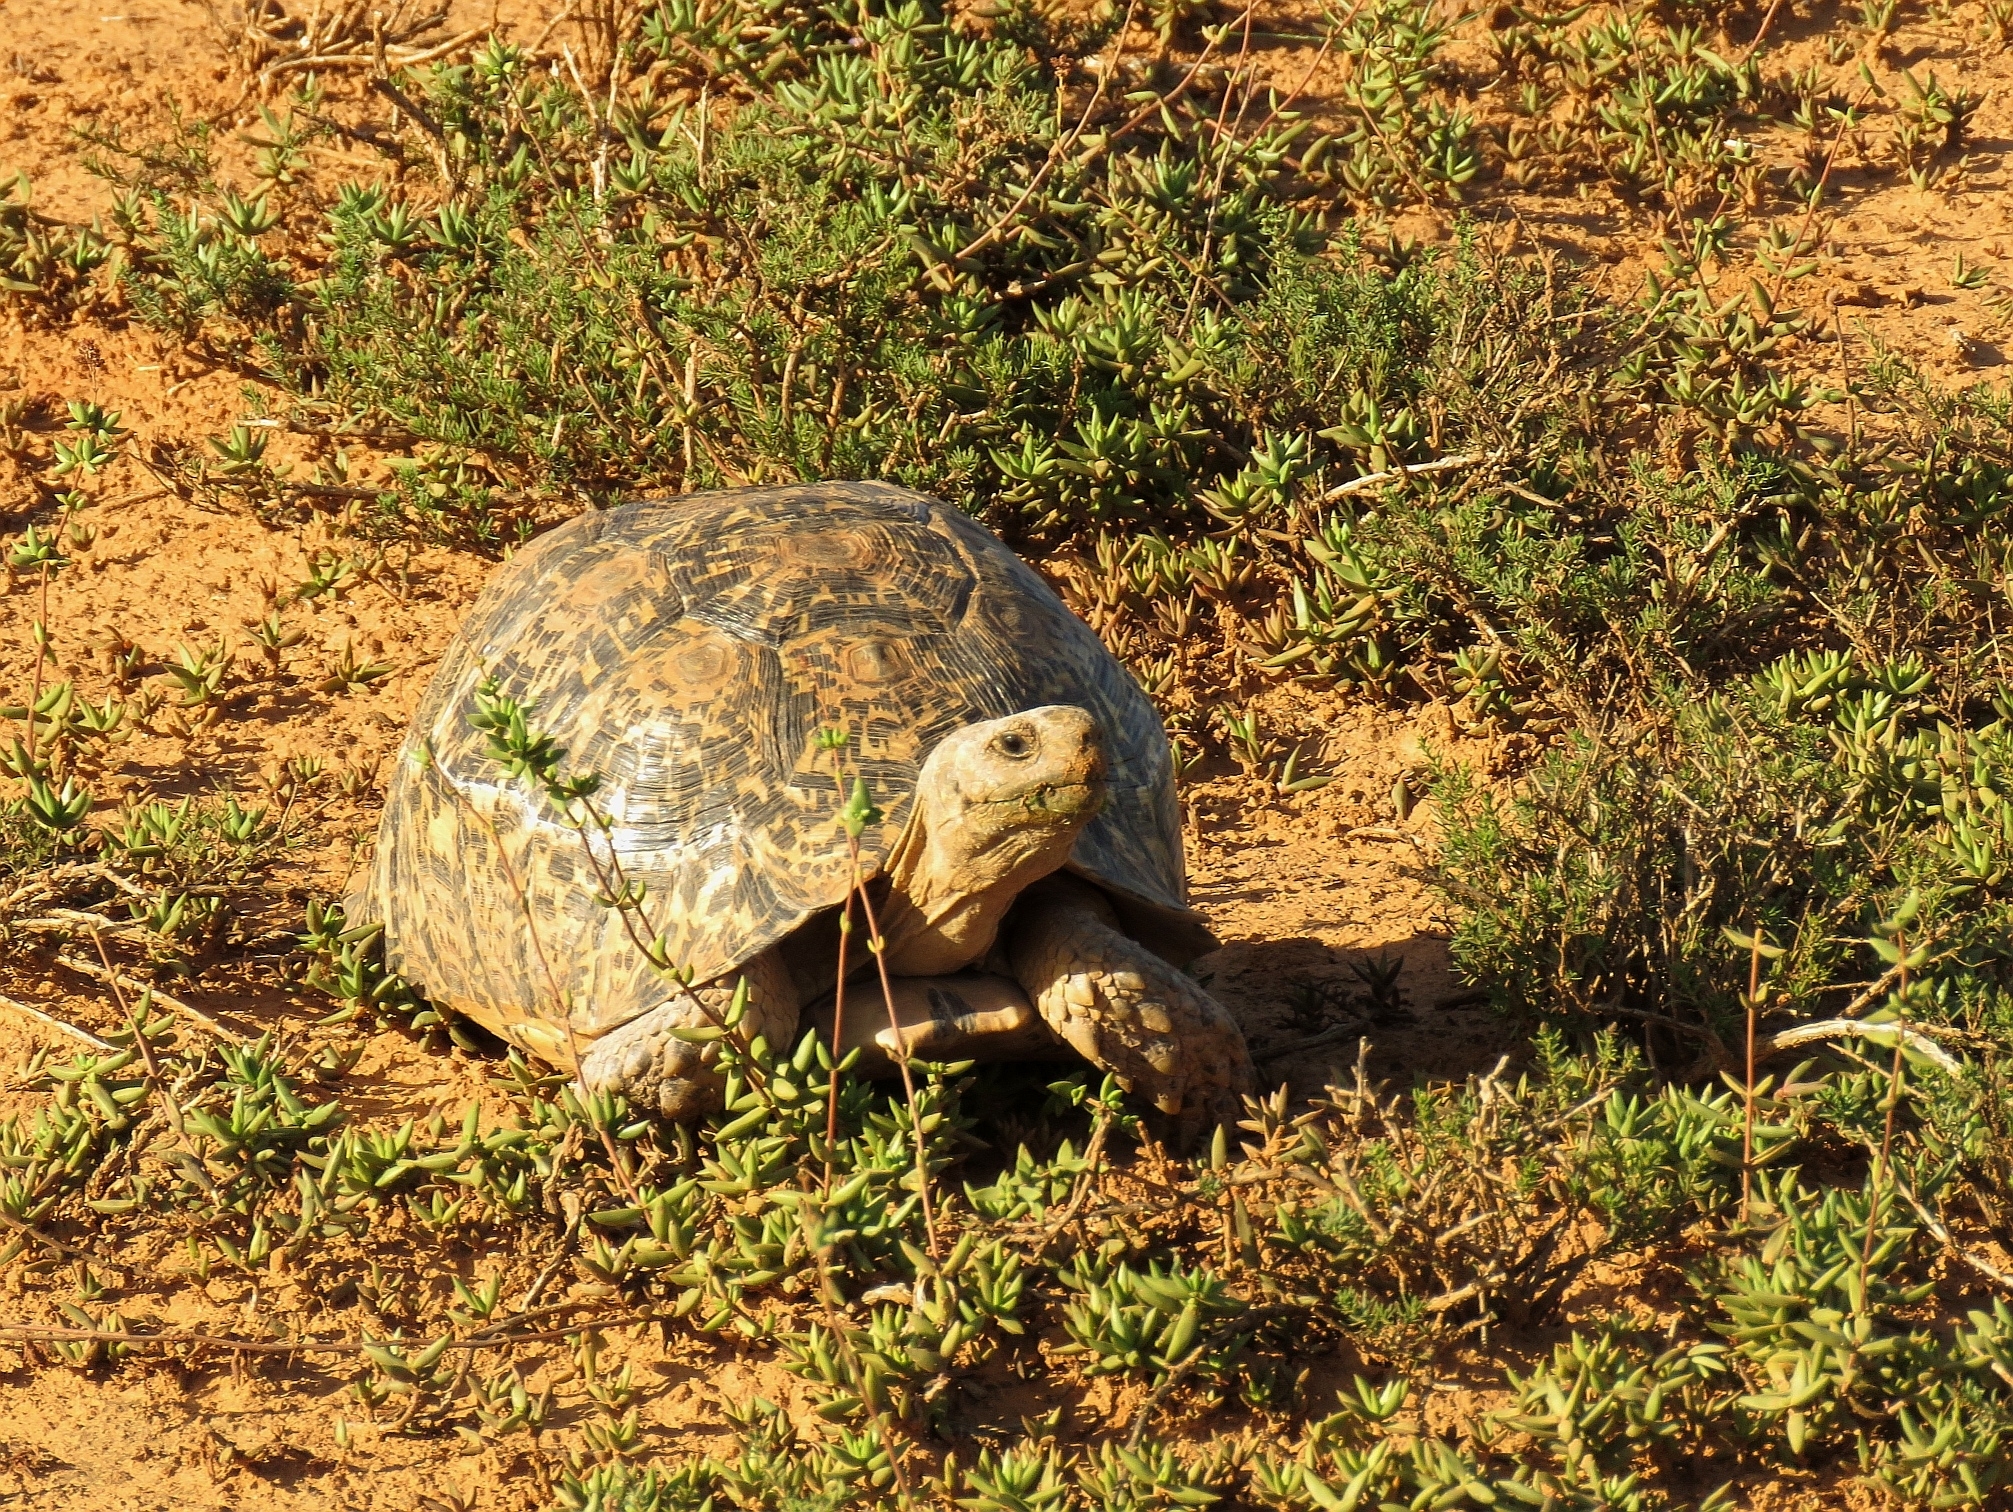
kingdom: Animalia
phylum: Chordata
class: Testudines
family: Testudinidae
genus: Stigmochelys
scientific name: Stigmochelys pardalis
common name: Leopard tortoise
